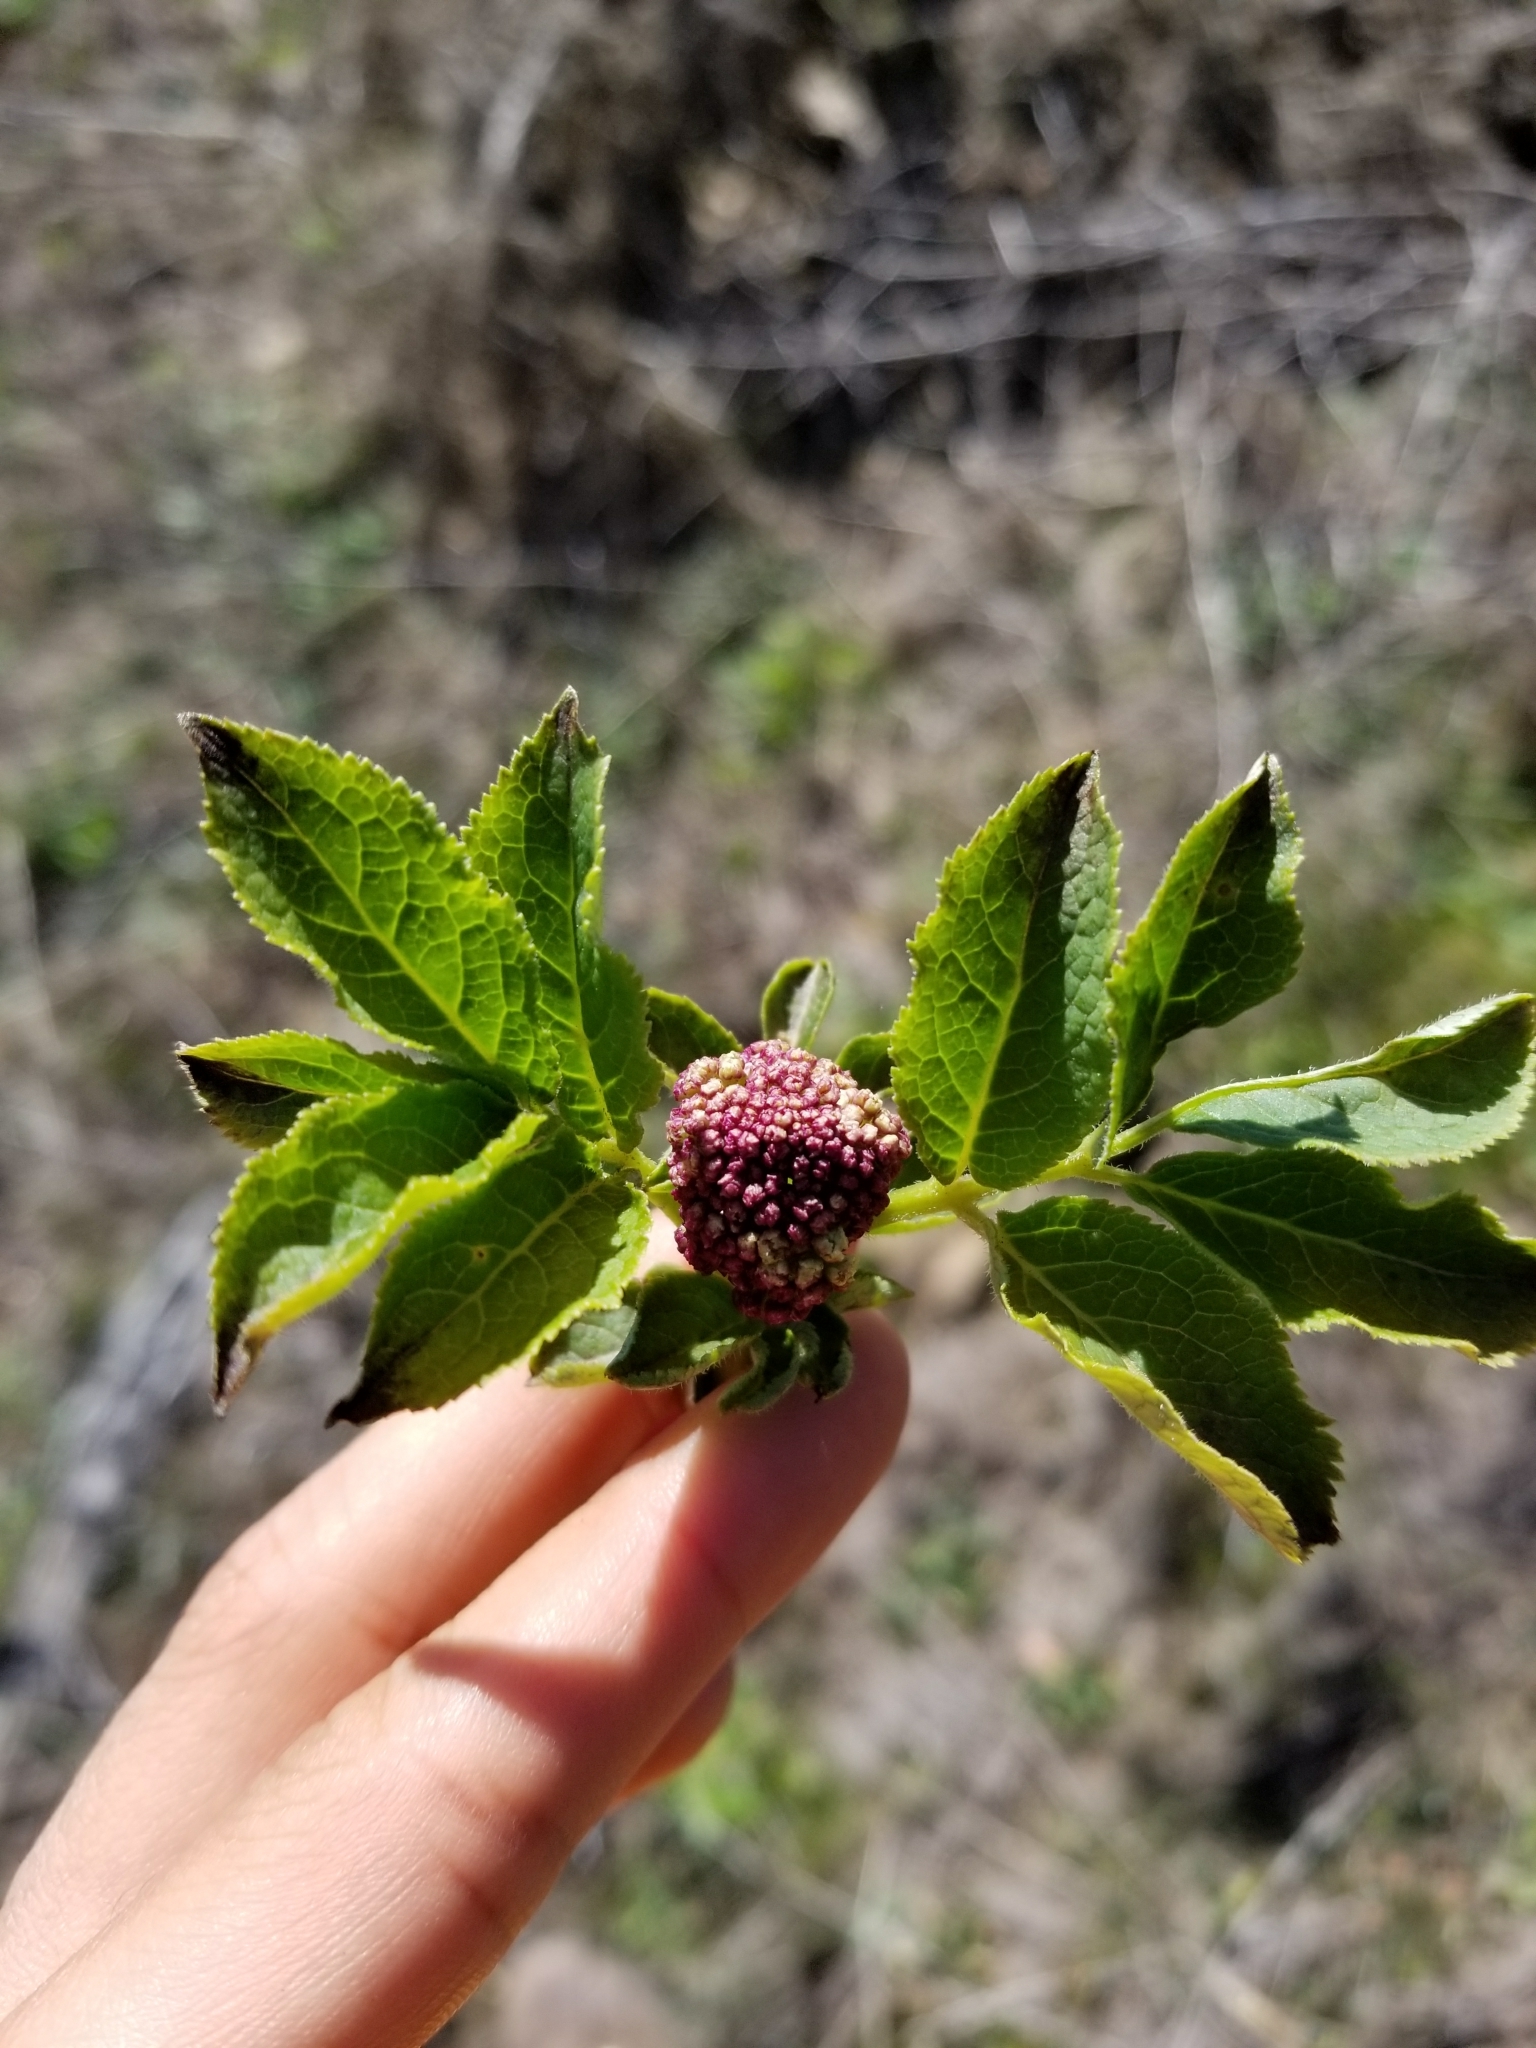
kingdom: Plantae
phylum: Tracheophyta
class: Magnoliopsida
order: Dipsacales
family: Viburnaceae
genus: Sambucus
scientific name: Sambucus racemosa
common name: Red-berried elder
